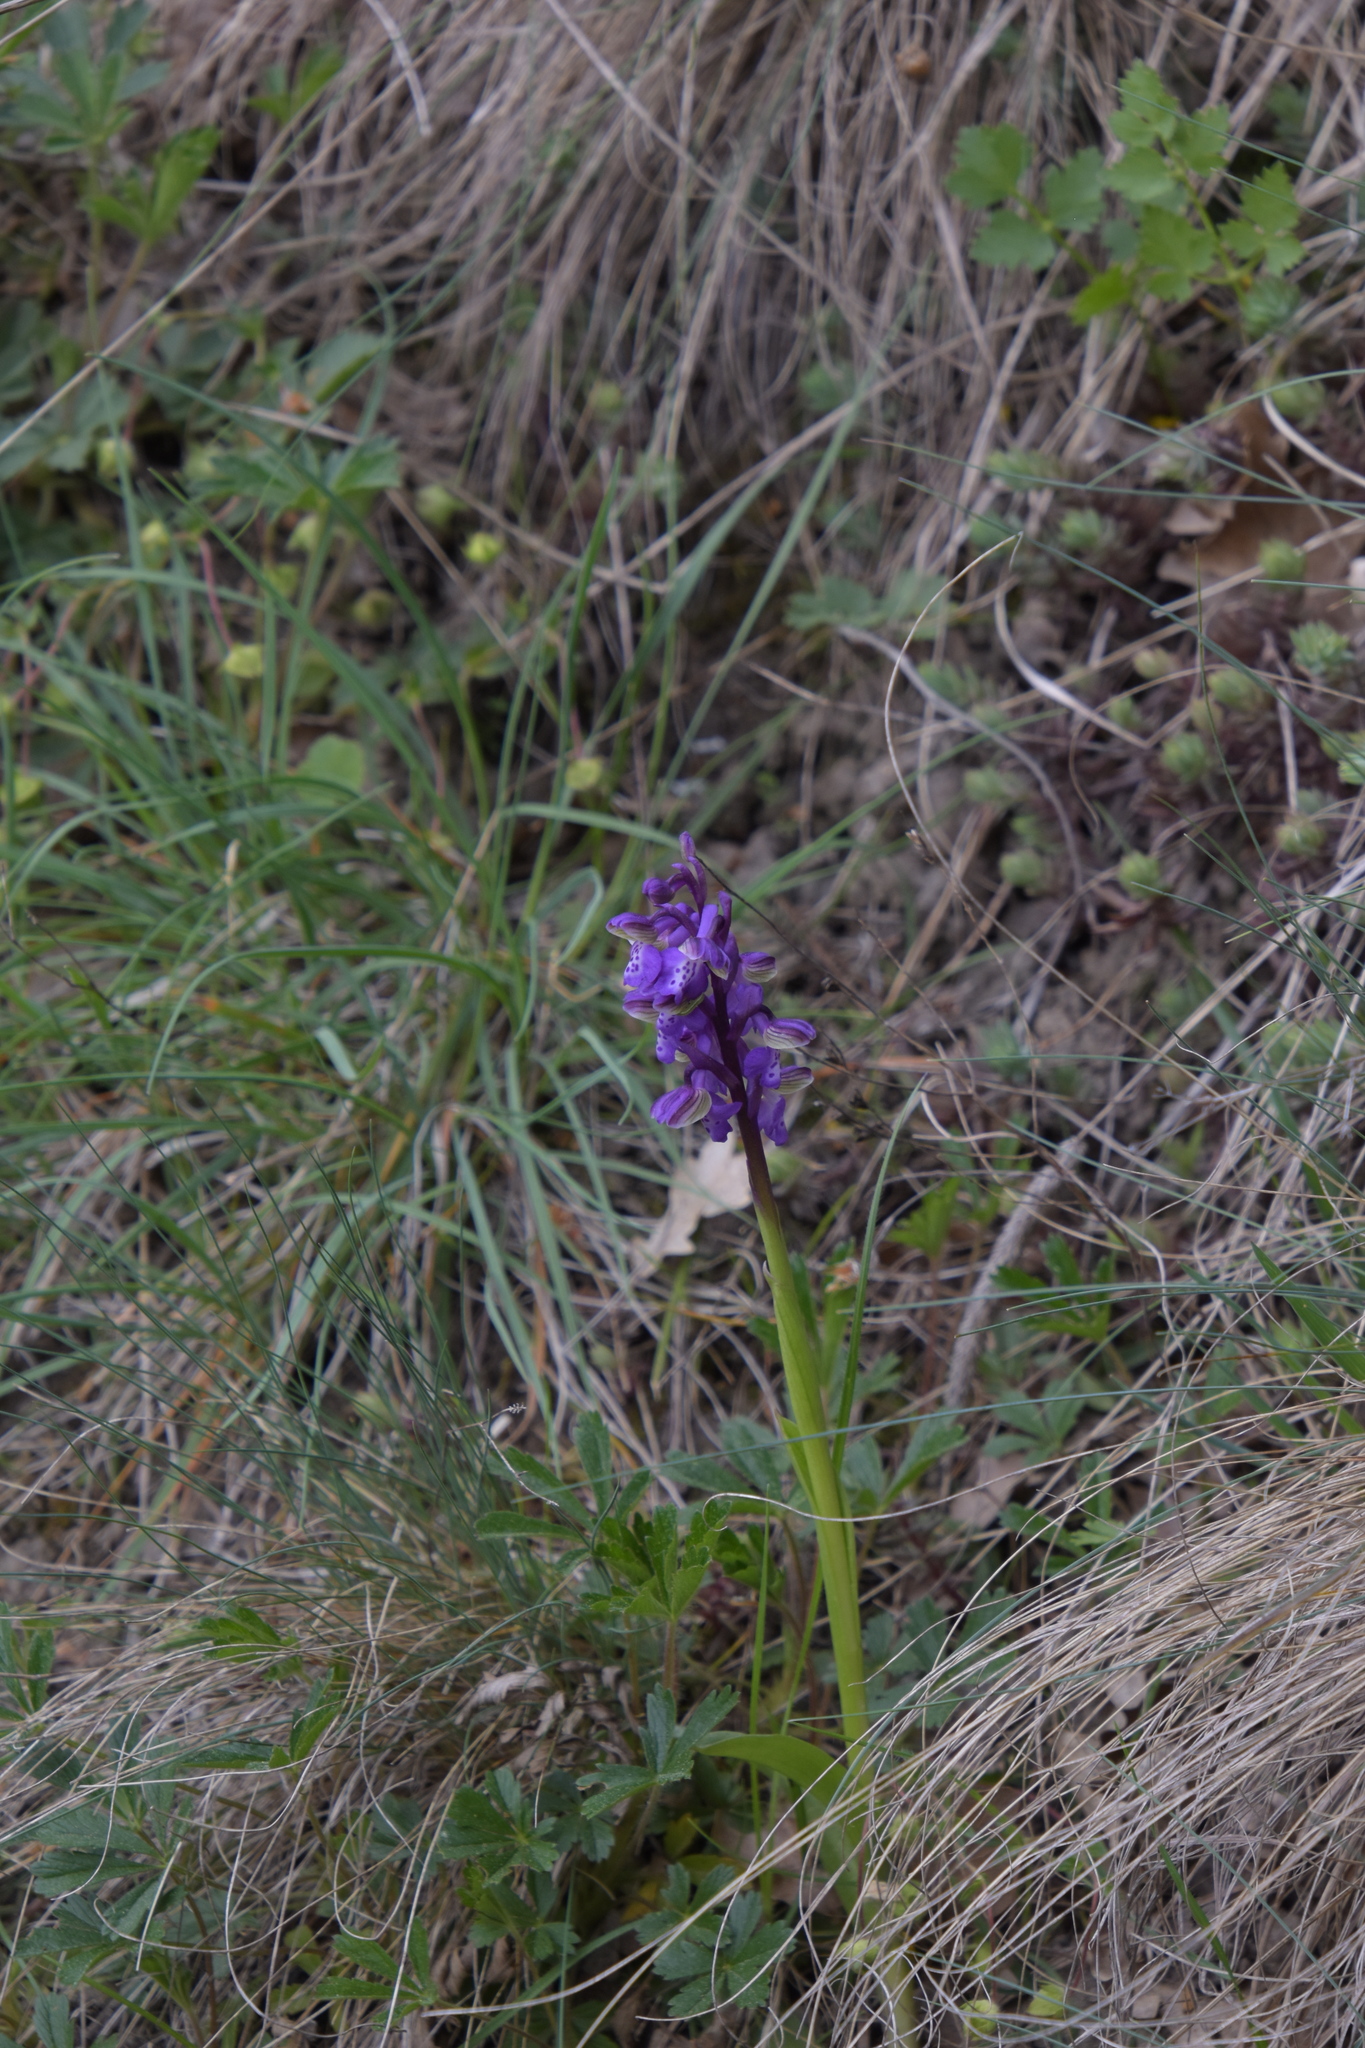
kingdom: Plantae
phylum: Tracheophyta
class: Liliopsida
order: Asparagales
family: Orchidaceae
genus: Anacamptis
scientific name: Anacamptis morio
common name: Green-winged orchid
